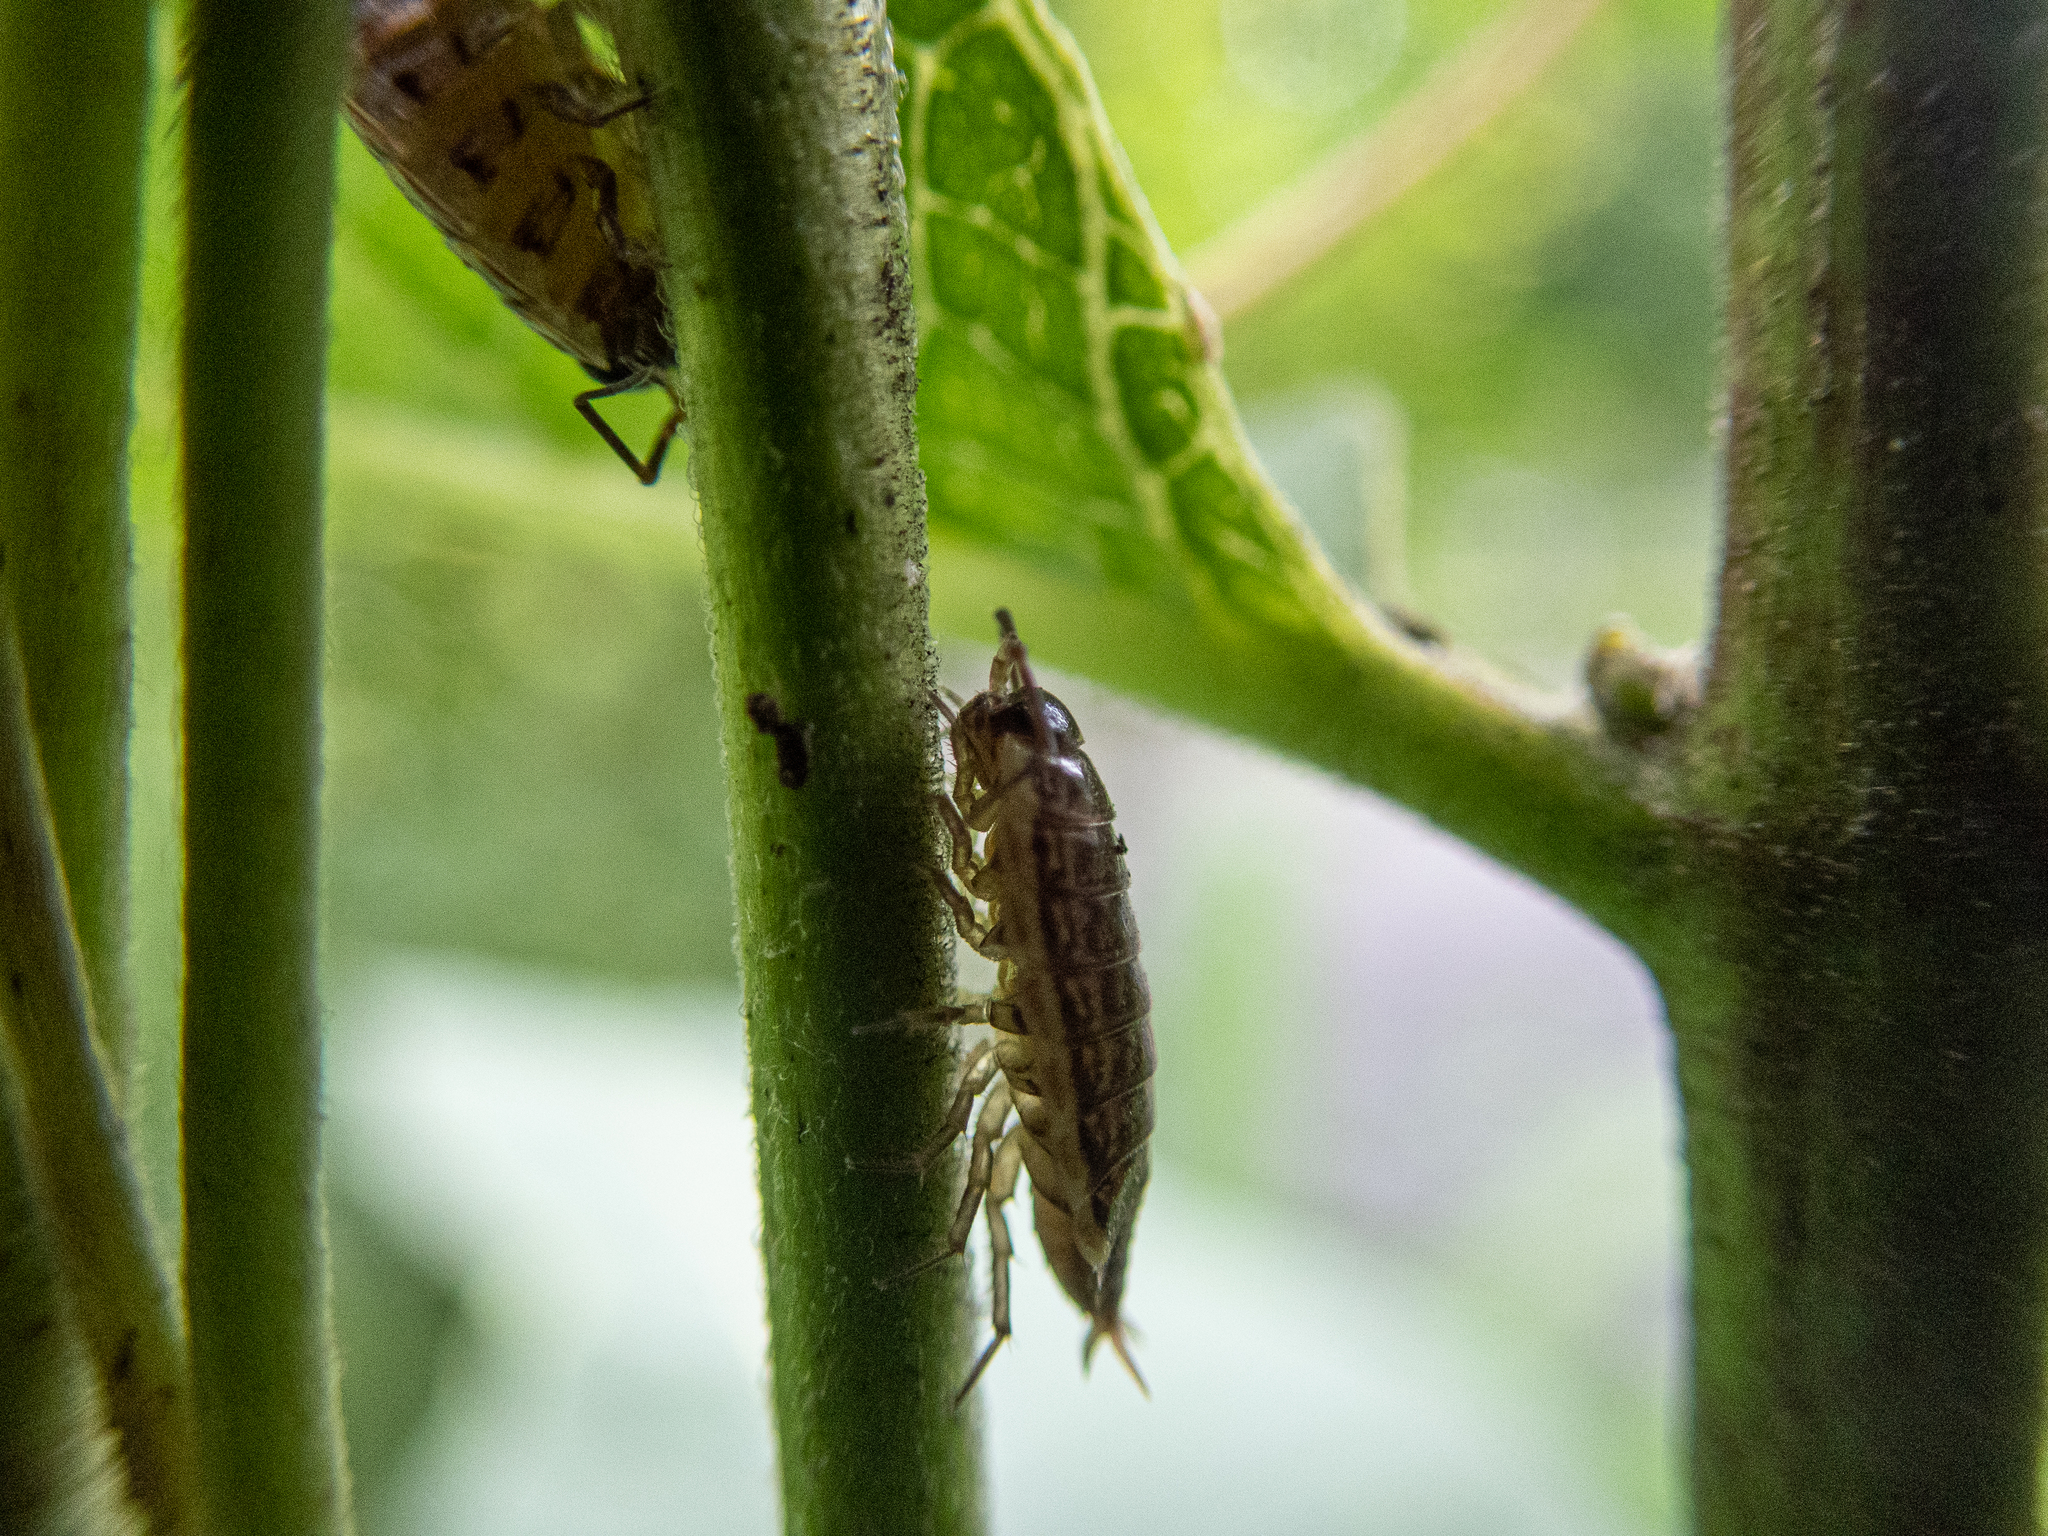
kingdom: Animalia
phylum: Arthropoda
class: Malacostraca
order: Isopoda
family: Philosciidae
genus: Philoscia
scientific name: Philoscia muscorum
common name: Common striped woodlouse
